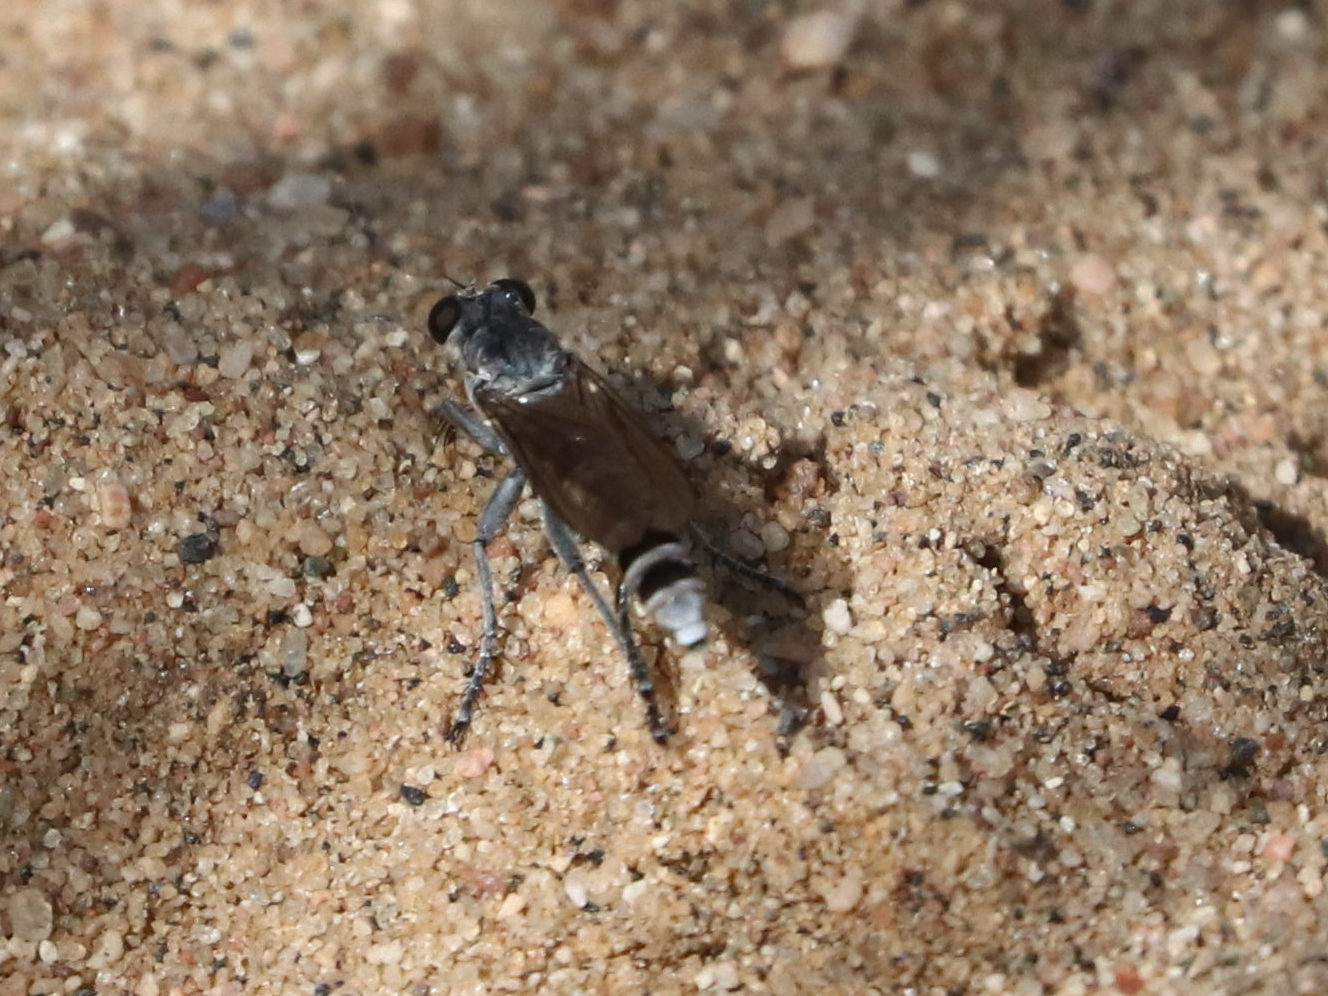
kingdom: Animalia
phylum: Arthropoda
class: Insecta
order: Diptera
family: Asilidae
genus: Stichopogon
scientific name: Stichopogon trifasciatus
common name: Three-banded robber fly
